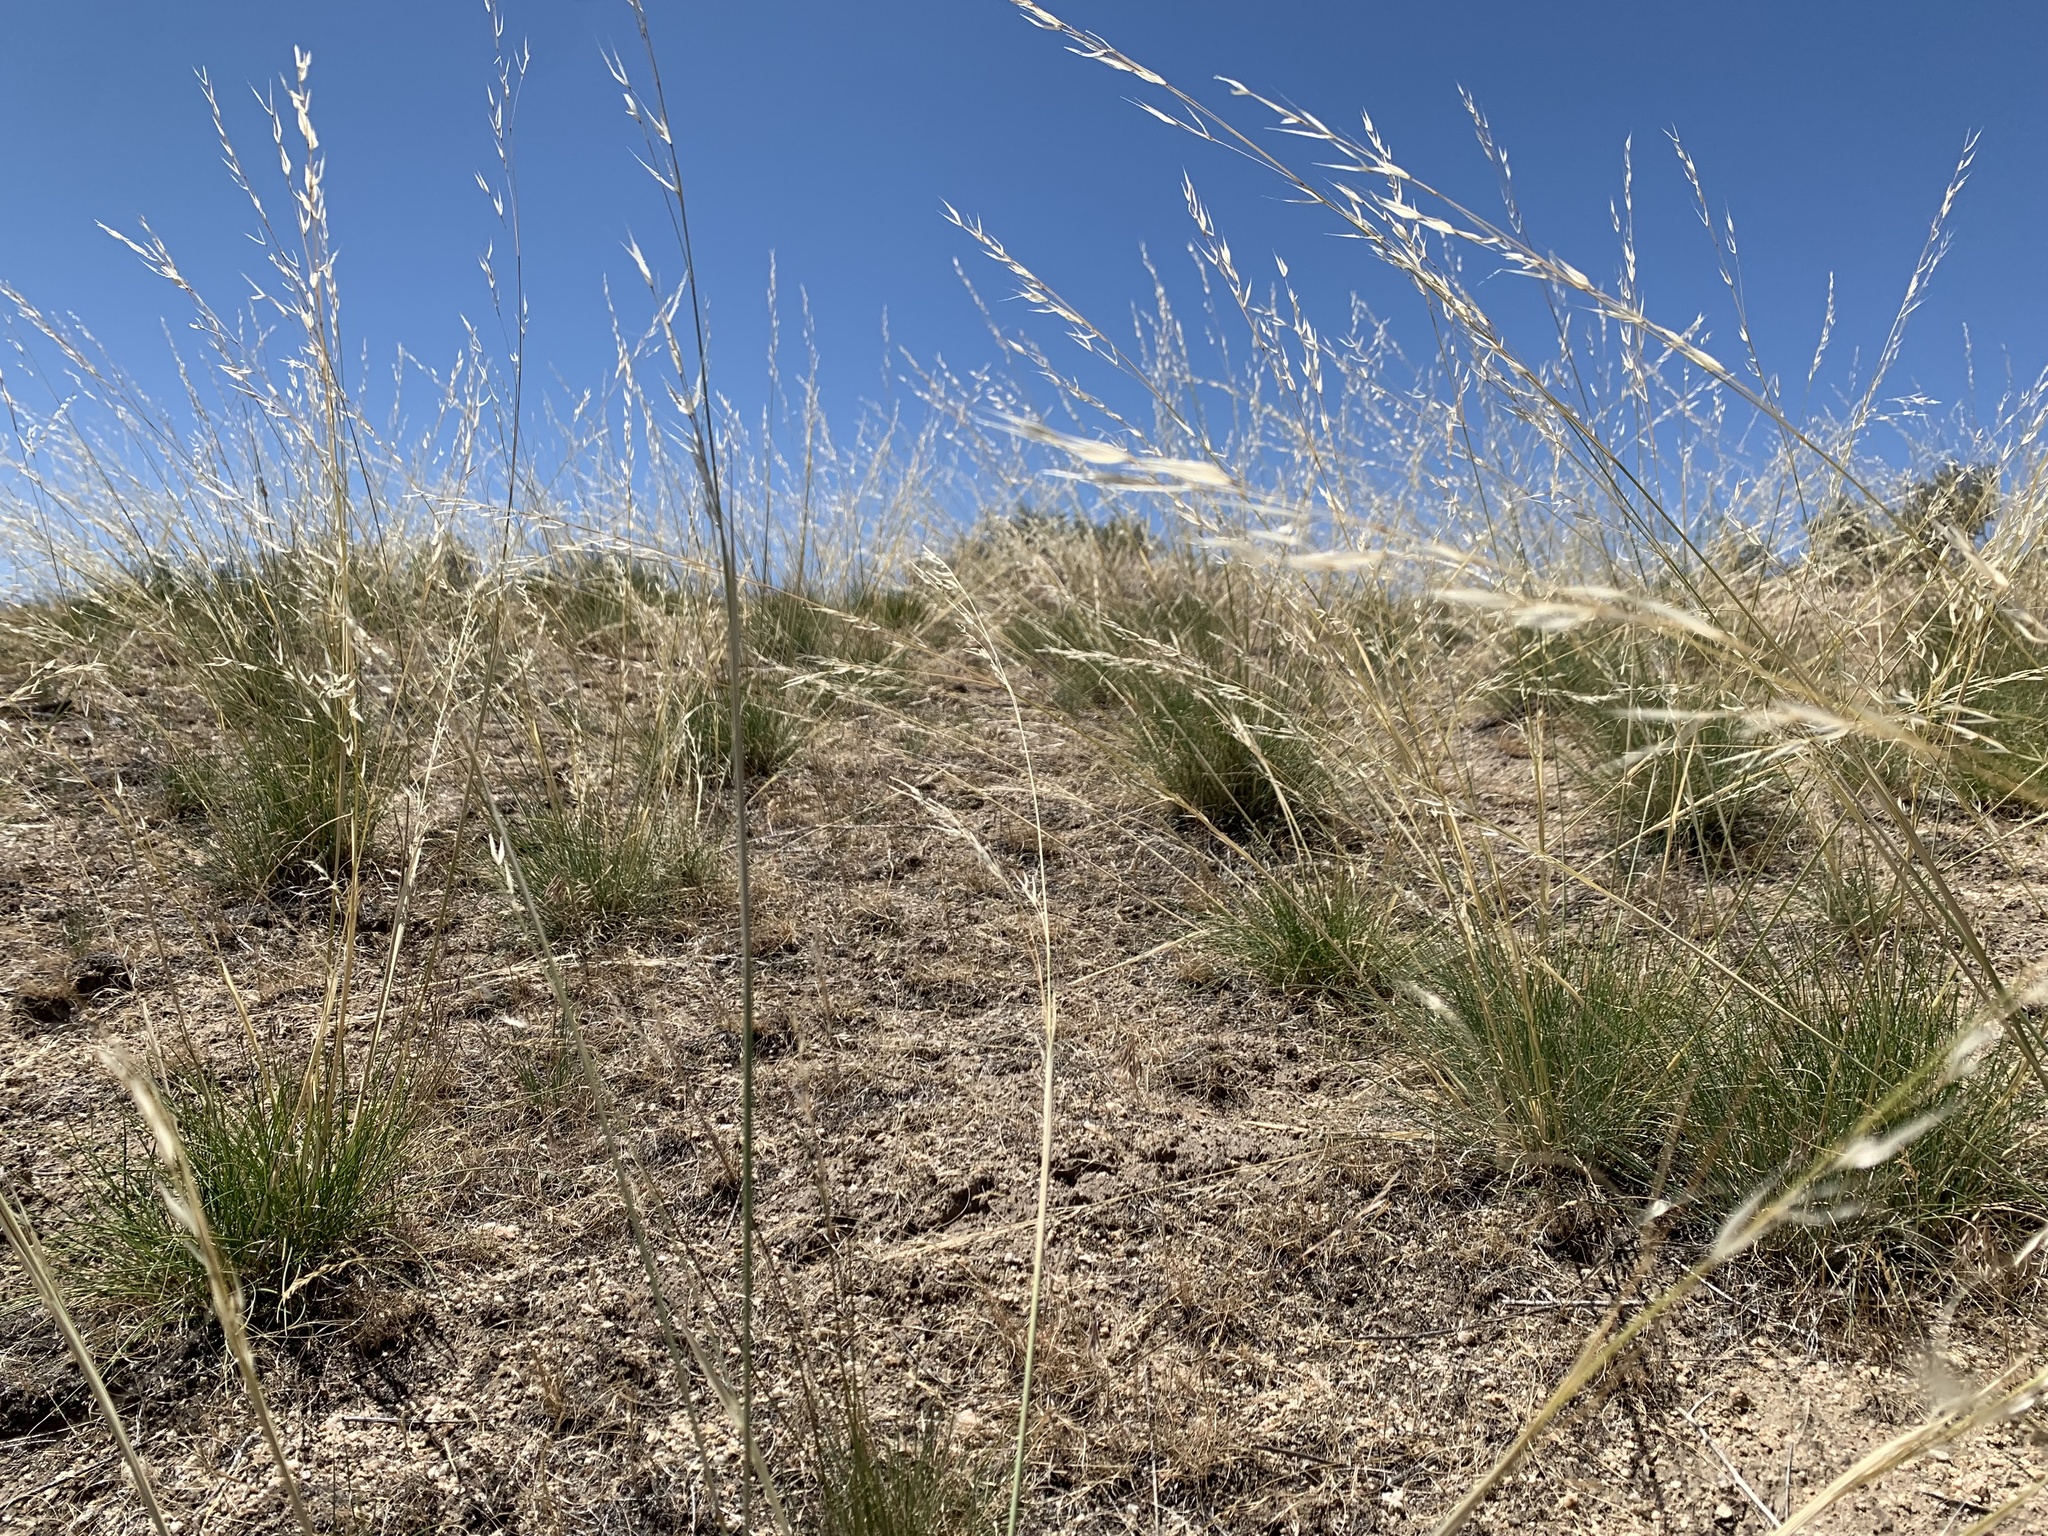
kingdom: Plantae
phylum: Tracheophyta
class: Liliopsida
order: Poales
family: Poaceae
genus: Hesperostipa
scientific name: Hesperostipa comata
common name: Needle-and-thread grass
